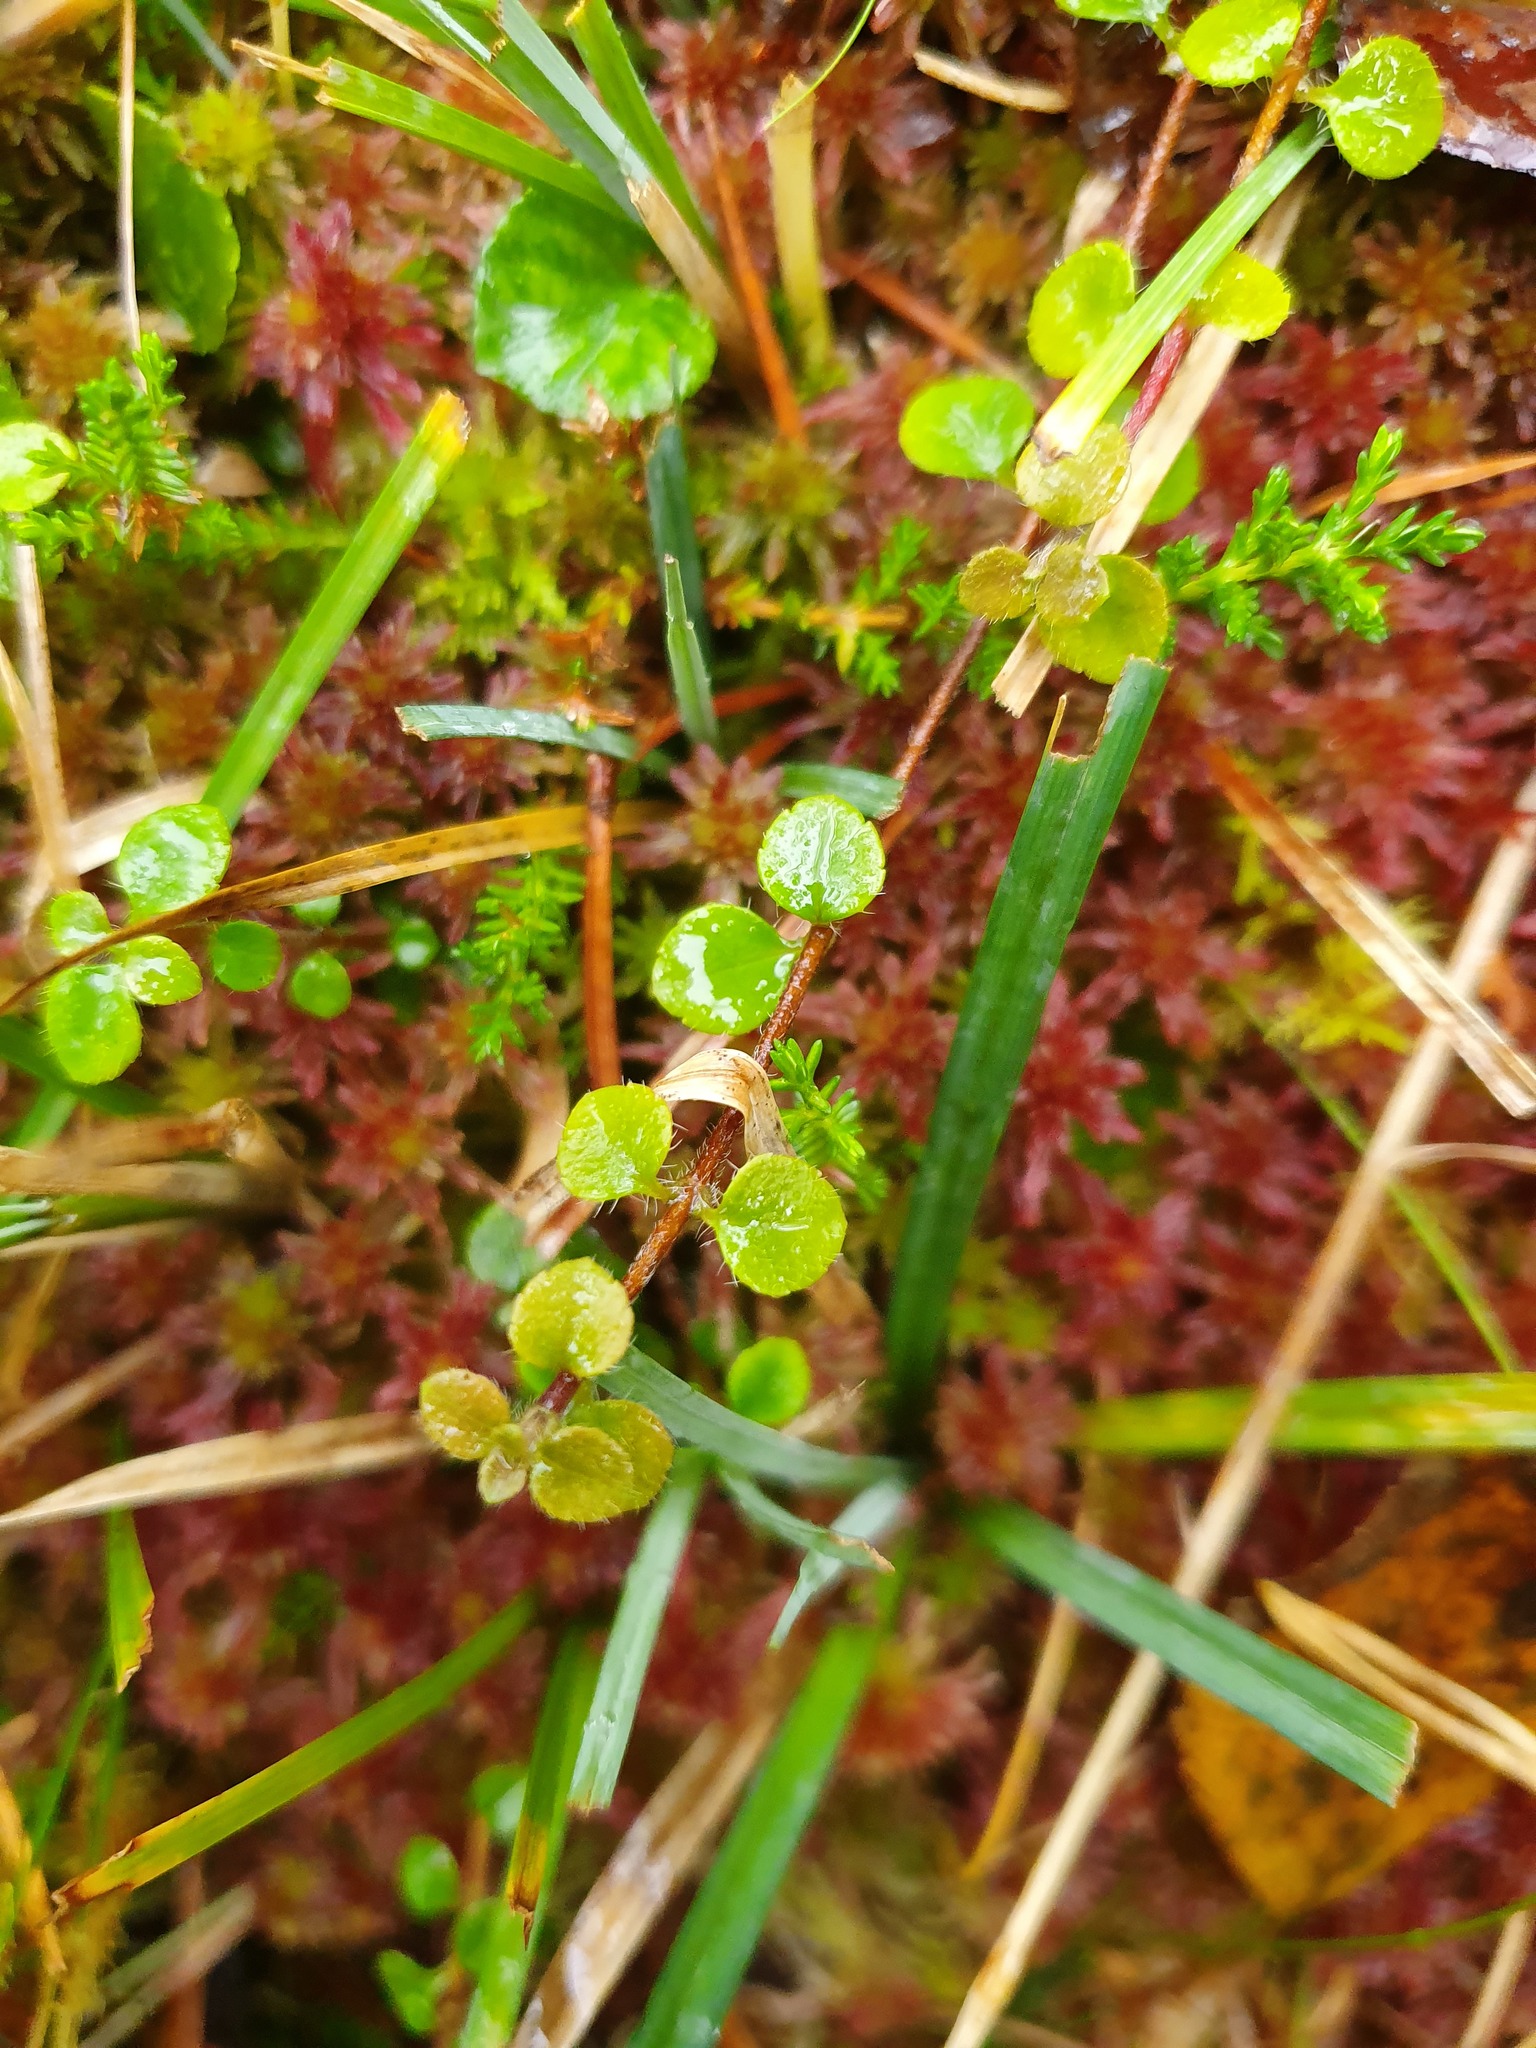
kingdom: Plantae
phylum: Tracheophyta
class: Magnoliopsida
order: Dipsacales
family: Caprifoliaceae
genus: Linnaea
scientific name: Linnaea borealis
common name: Twinflower
